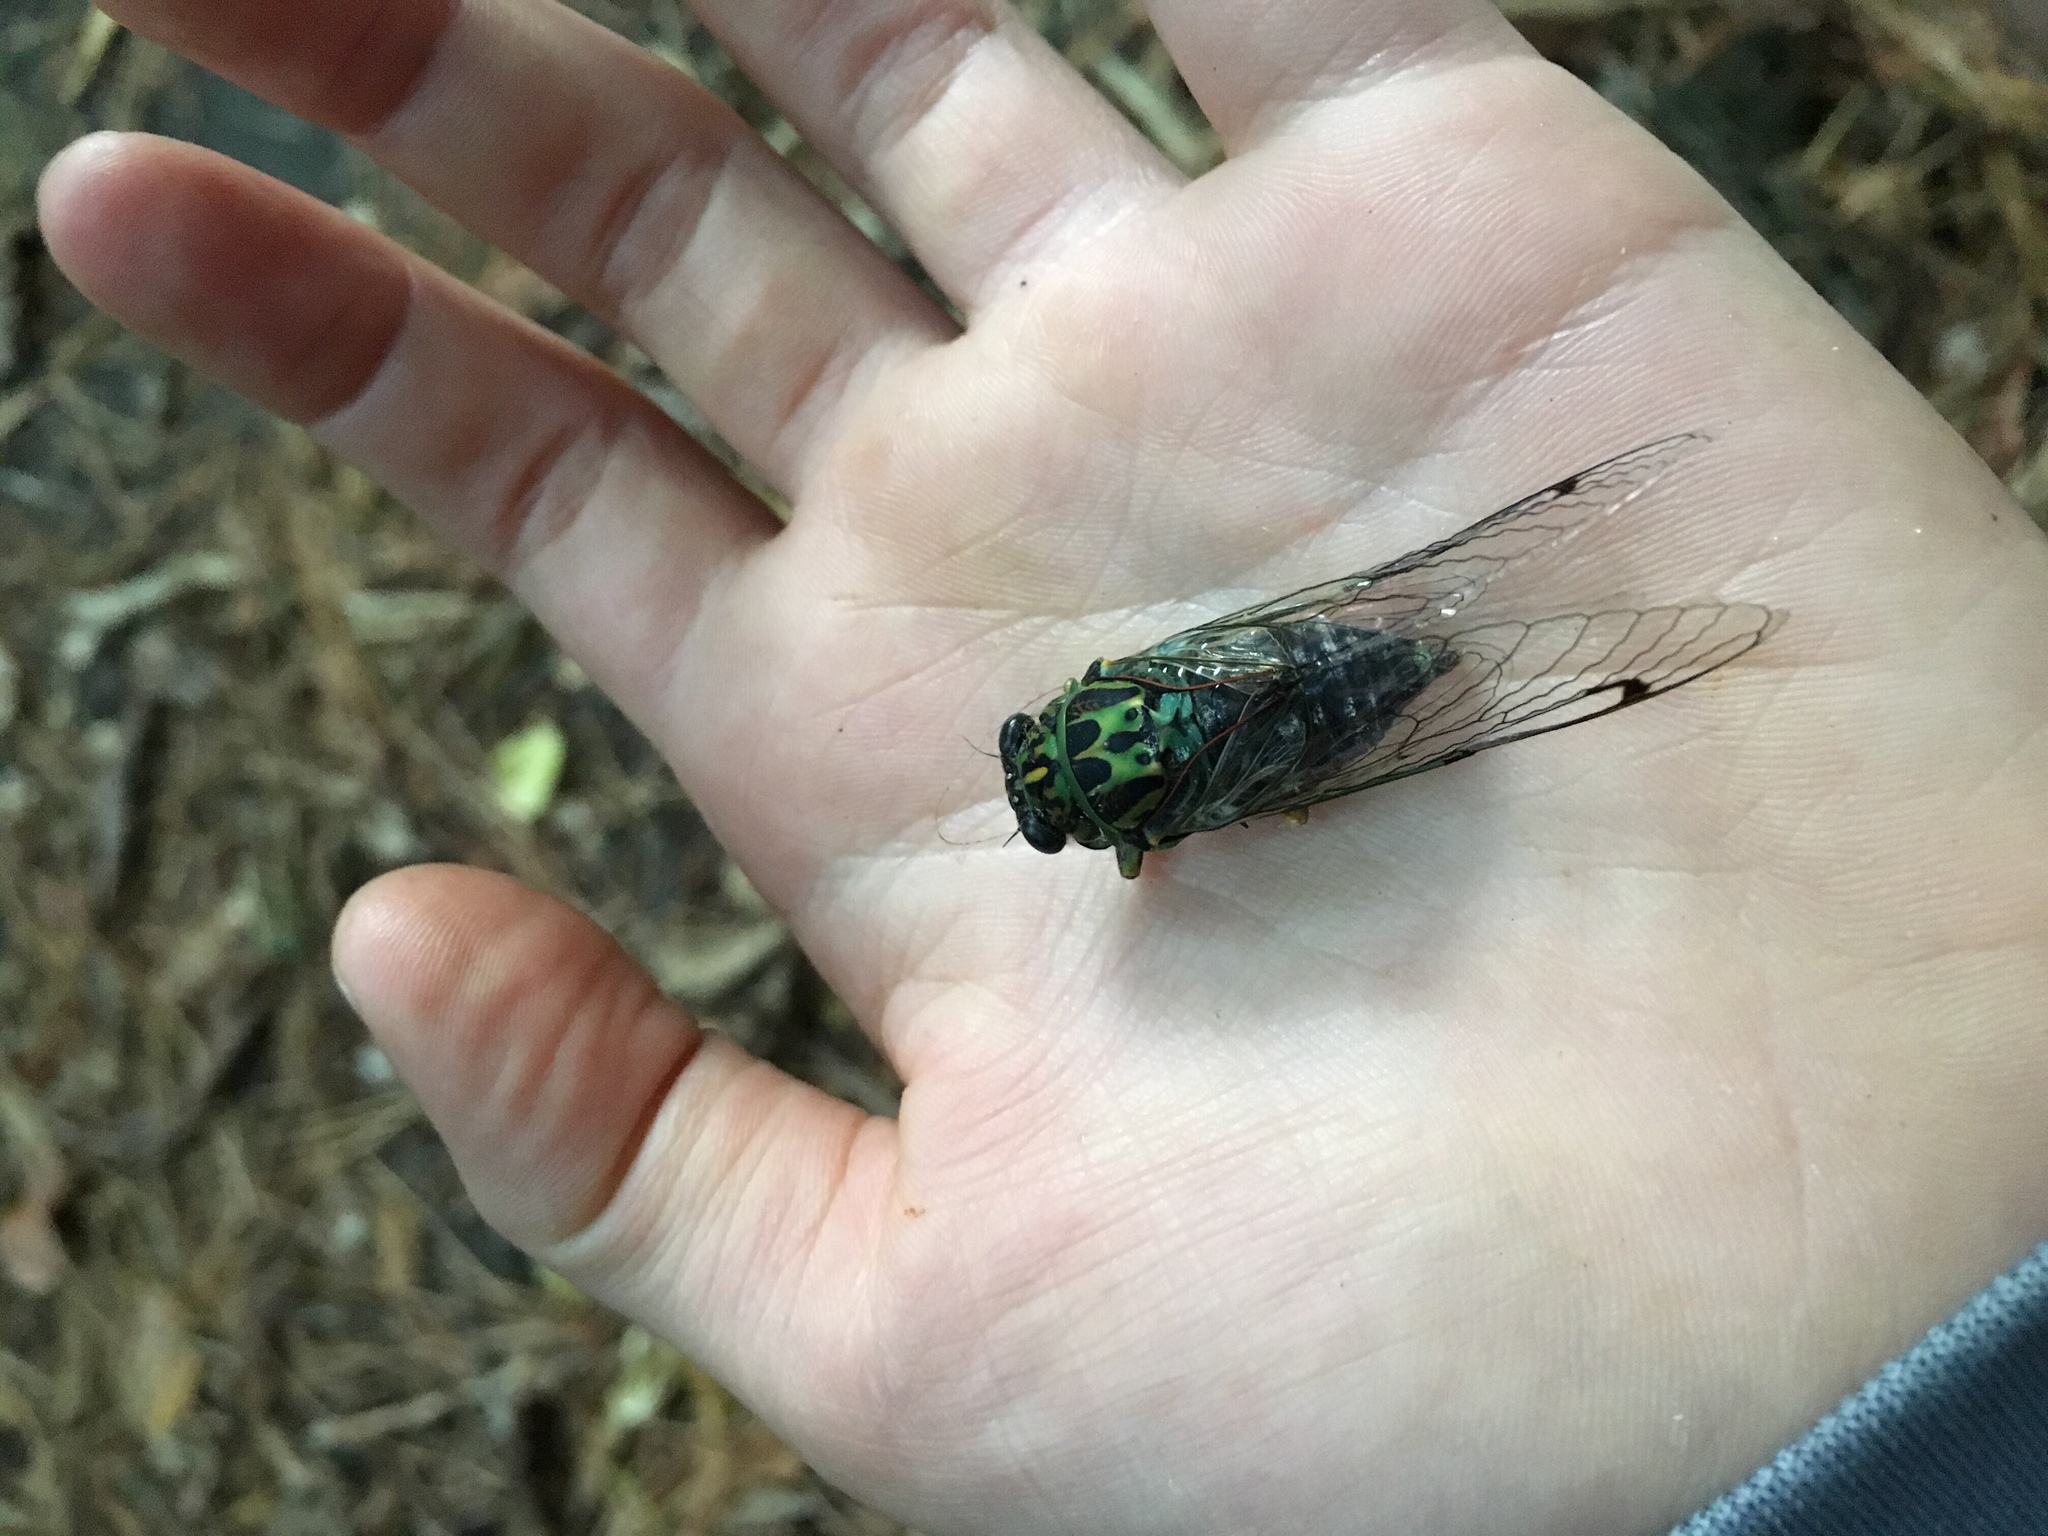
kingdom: Animalia
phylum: Arthropoda
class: Insecta
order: Hemiptera
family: Cicadidae
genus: Amphipsalta
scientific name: Amphipsalta zelandica
